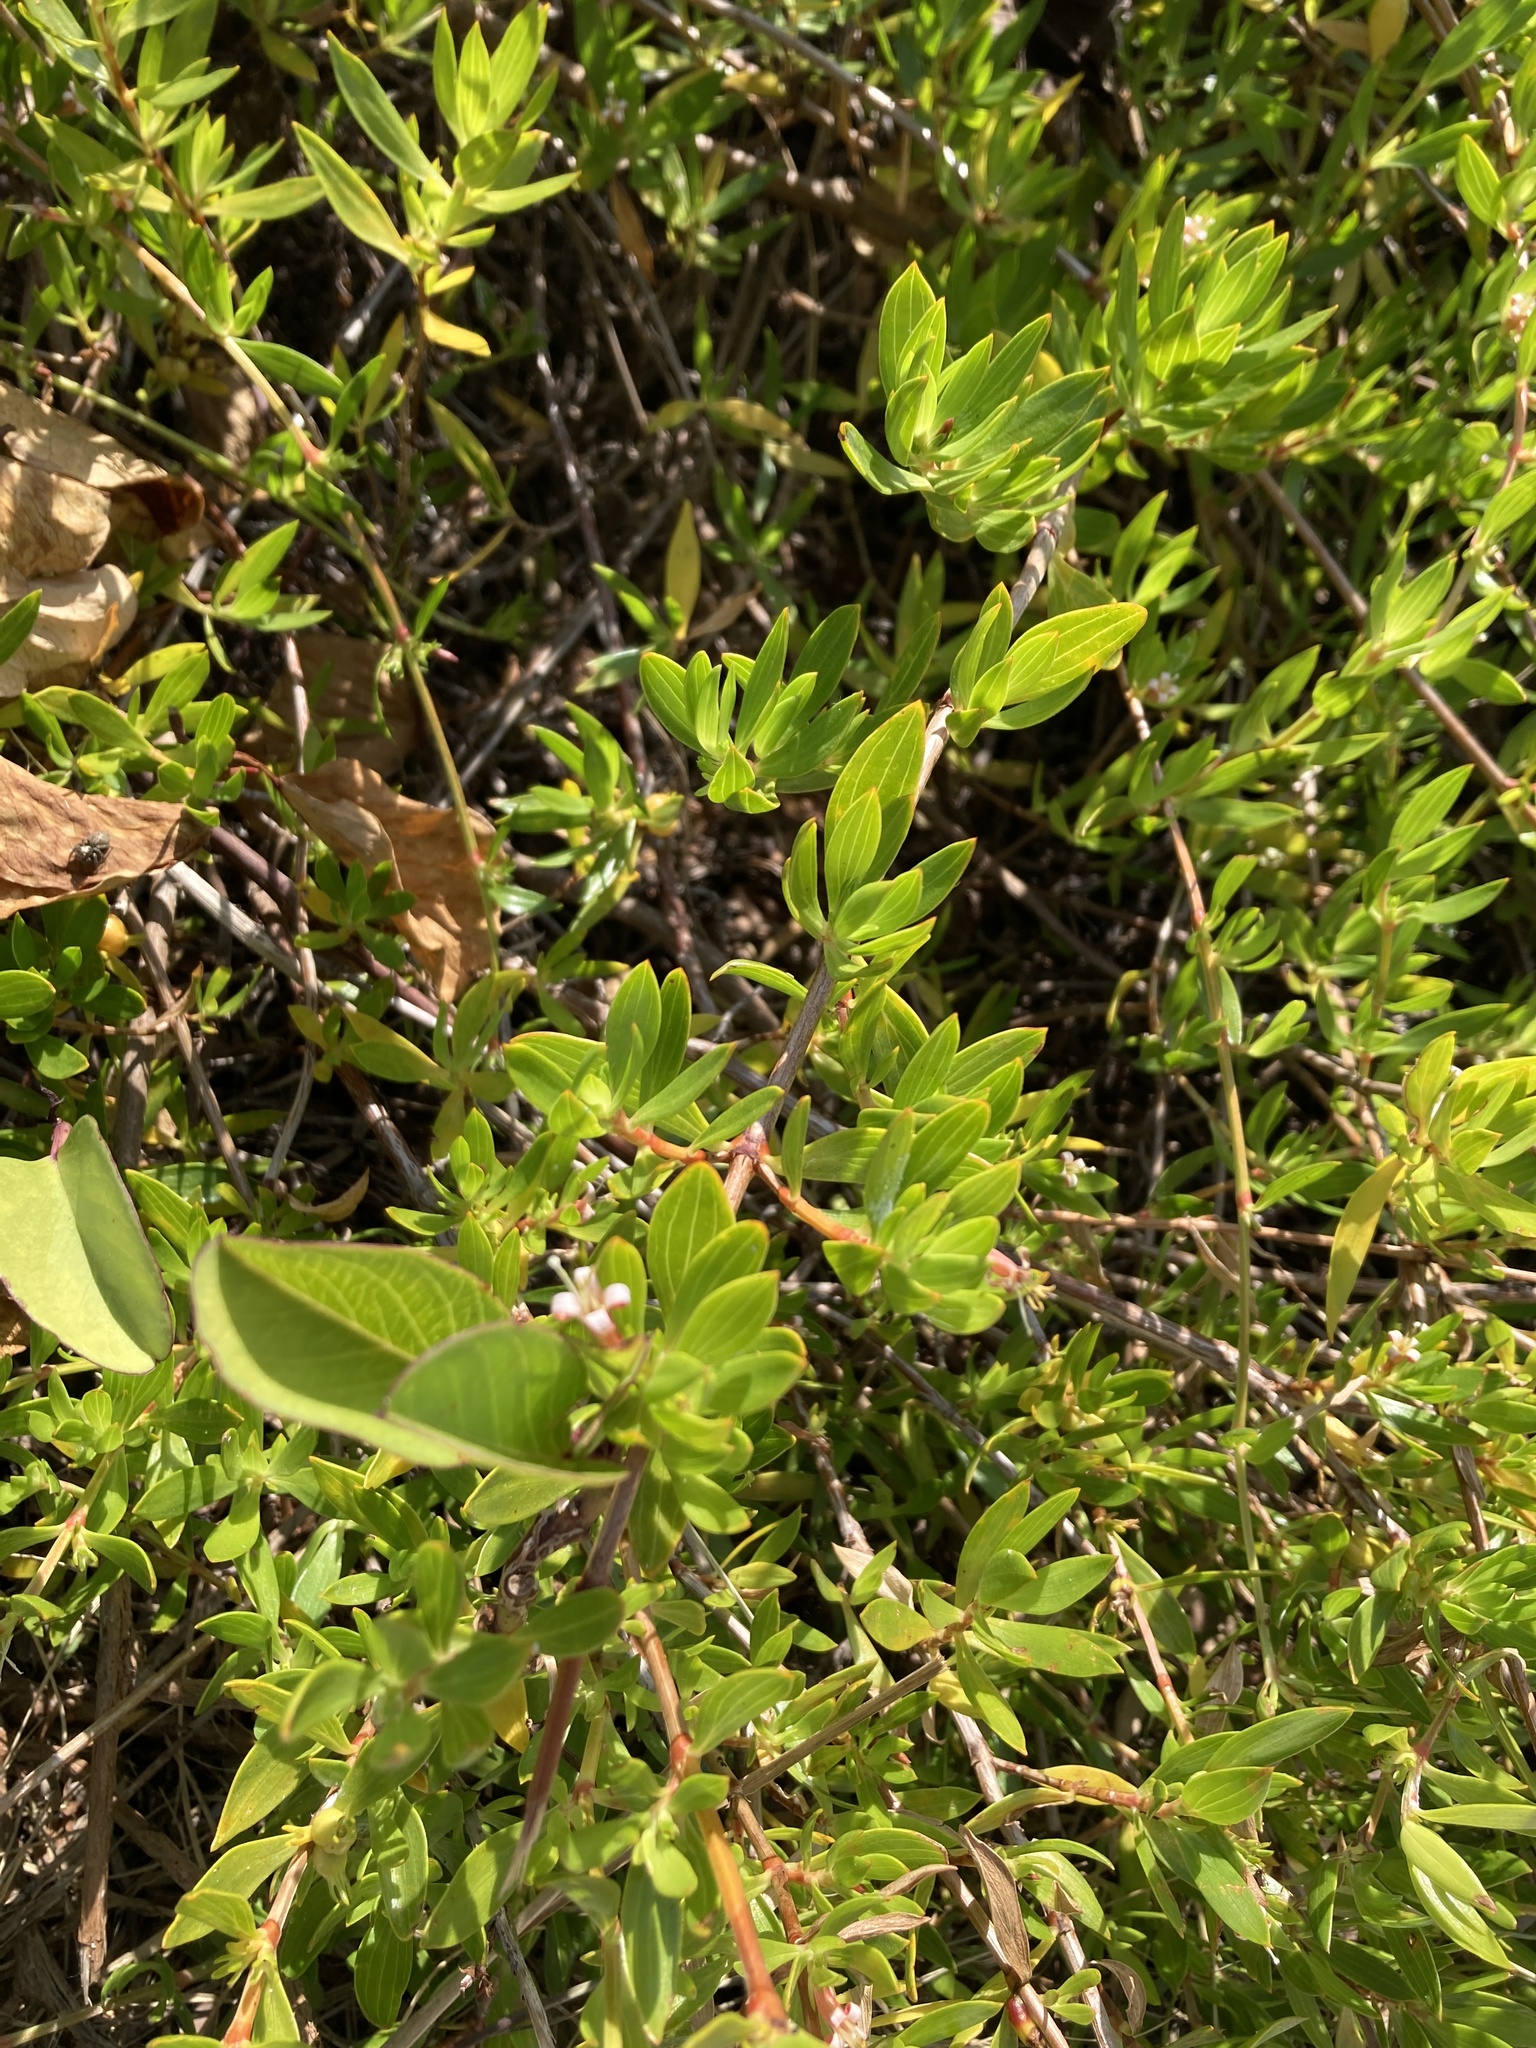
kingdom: Plantae
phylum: Tracheophyta
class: Magnoliopsida
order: Gentianales
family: Rubiaceae
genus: Ernodea
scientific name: Ernodea littoralis
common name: Beach creeper
